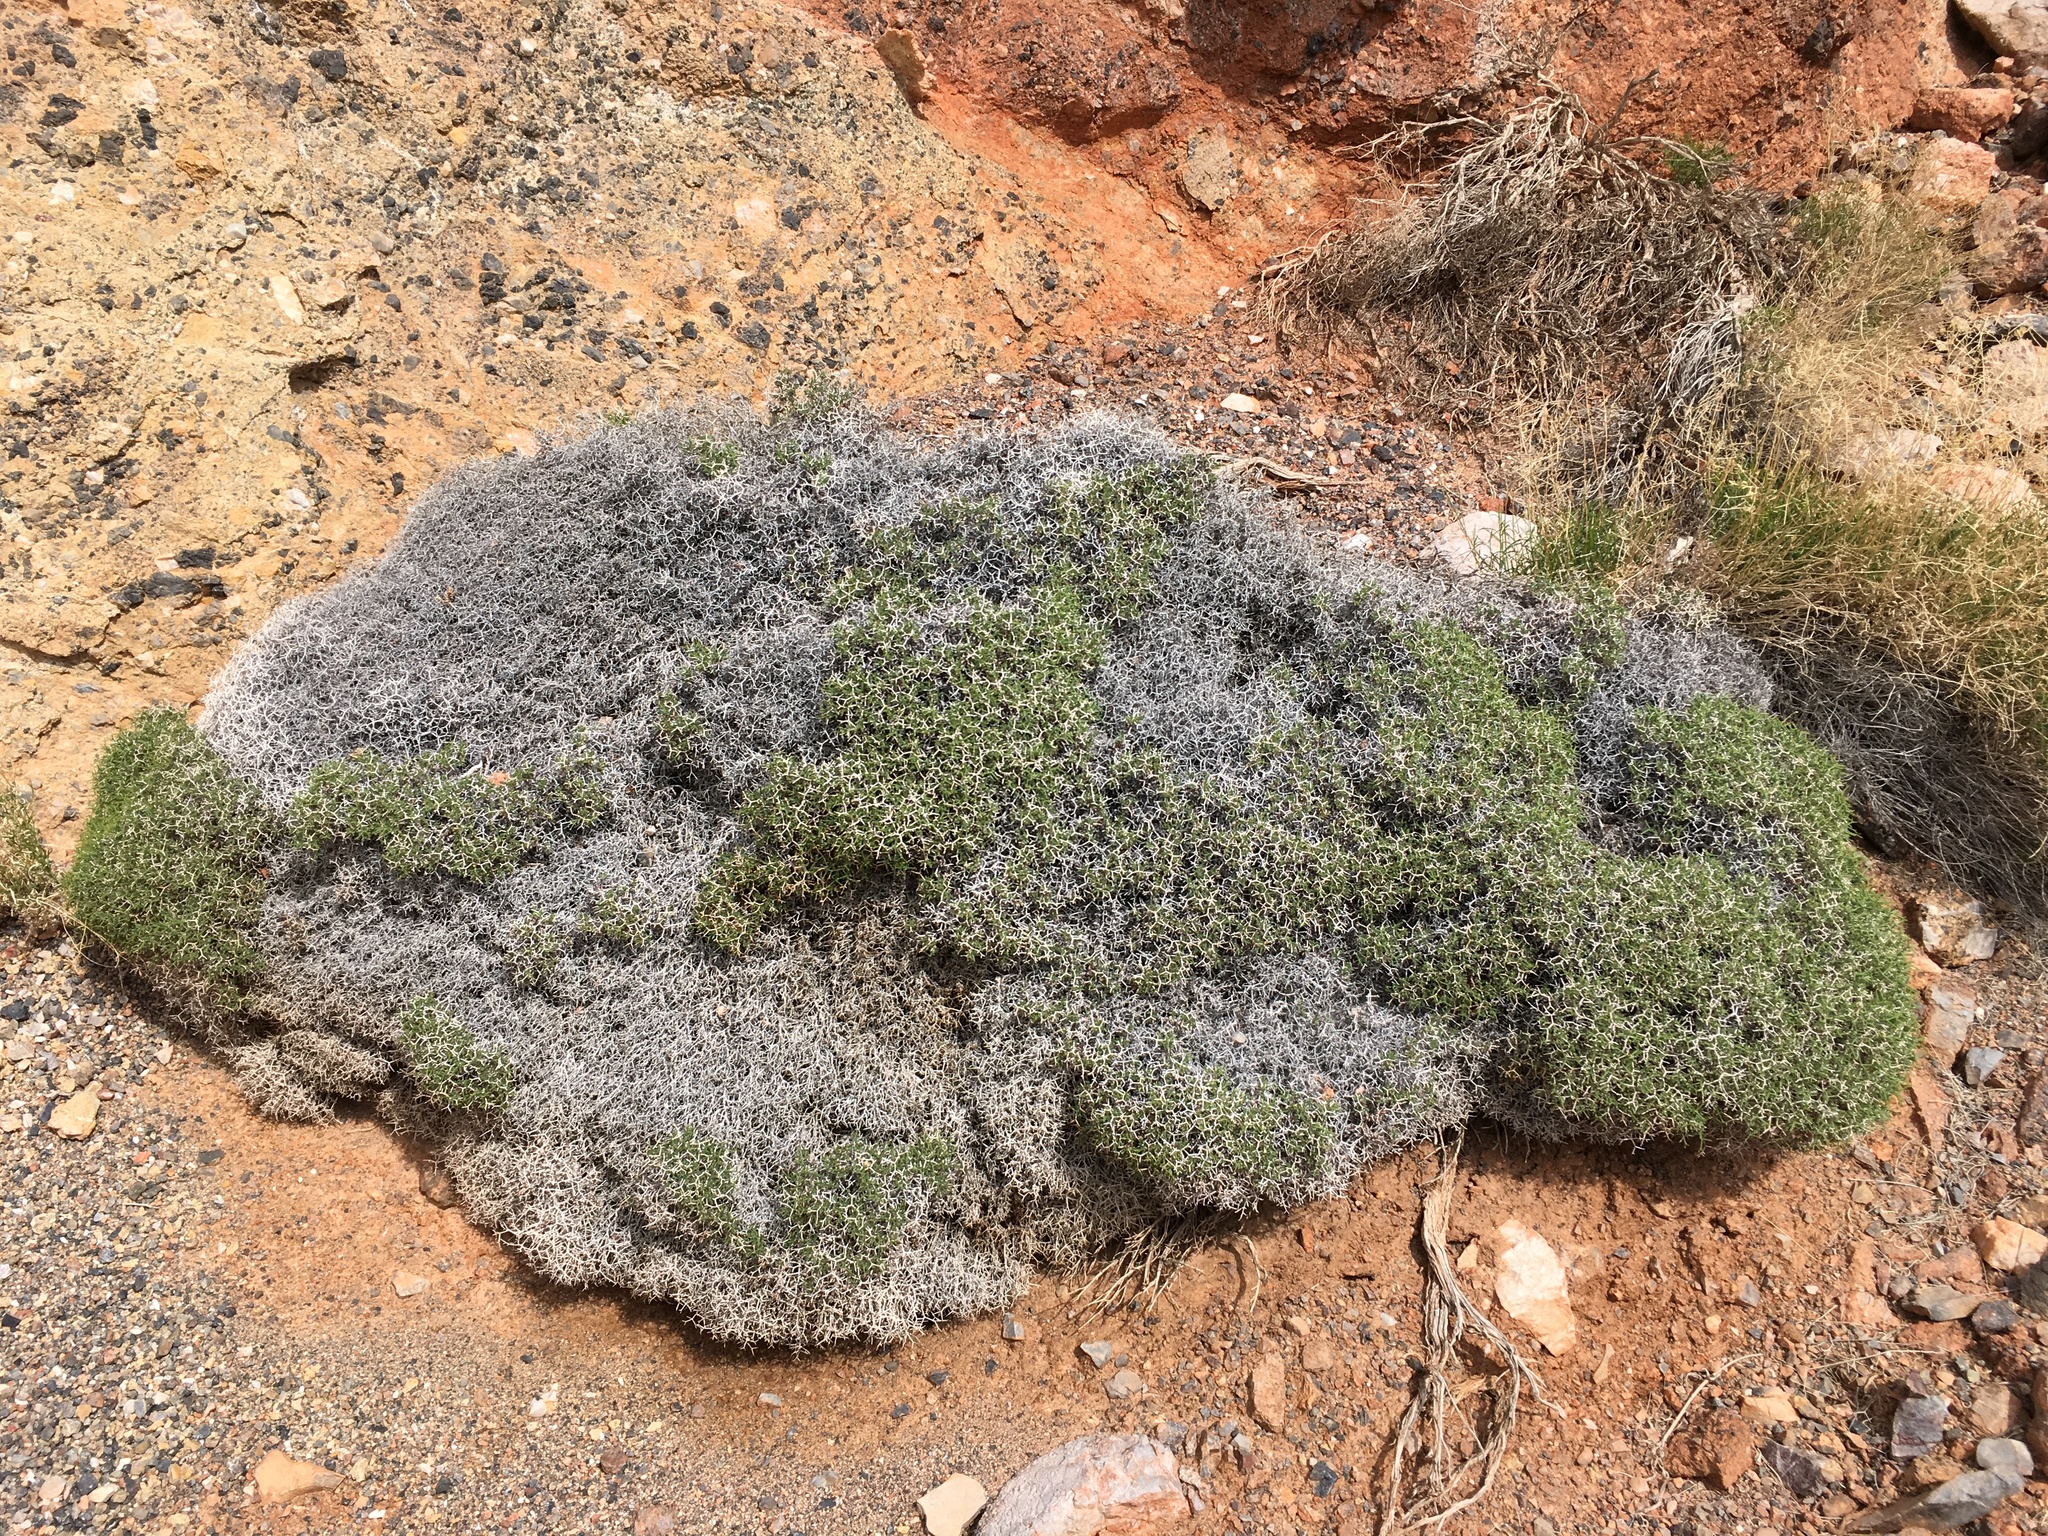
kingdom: Plantae
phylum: Tracheophyta
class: Magnoliopsida
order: Caryophyllales
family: Polygonaceae
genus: Eriogonum
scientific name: Eriogonum heermannii
